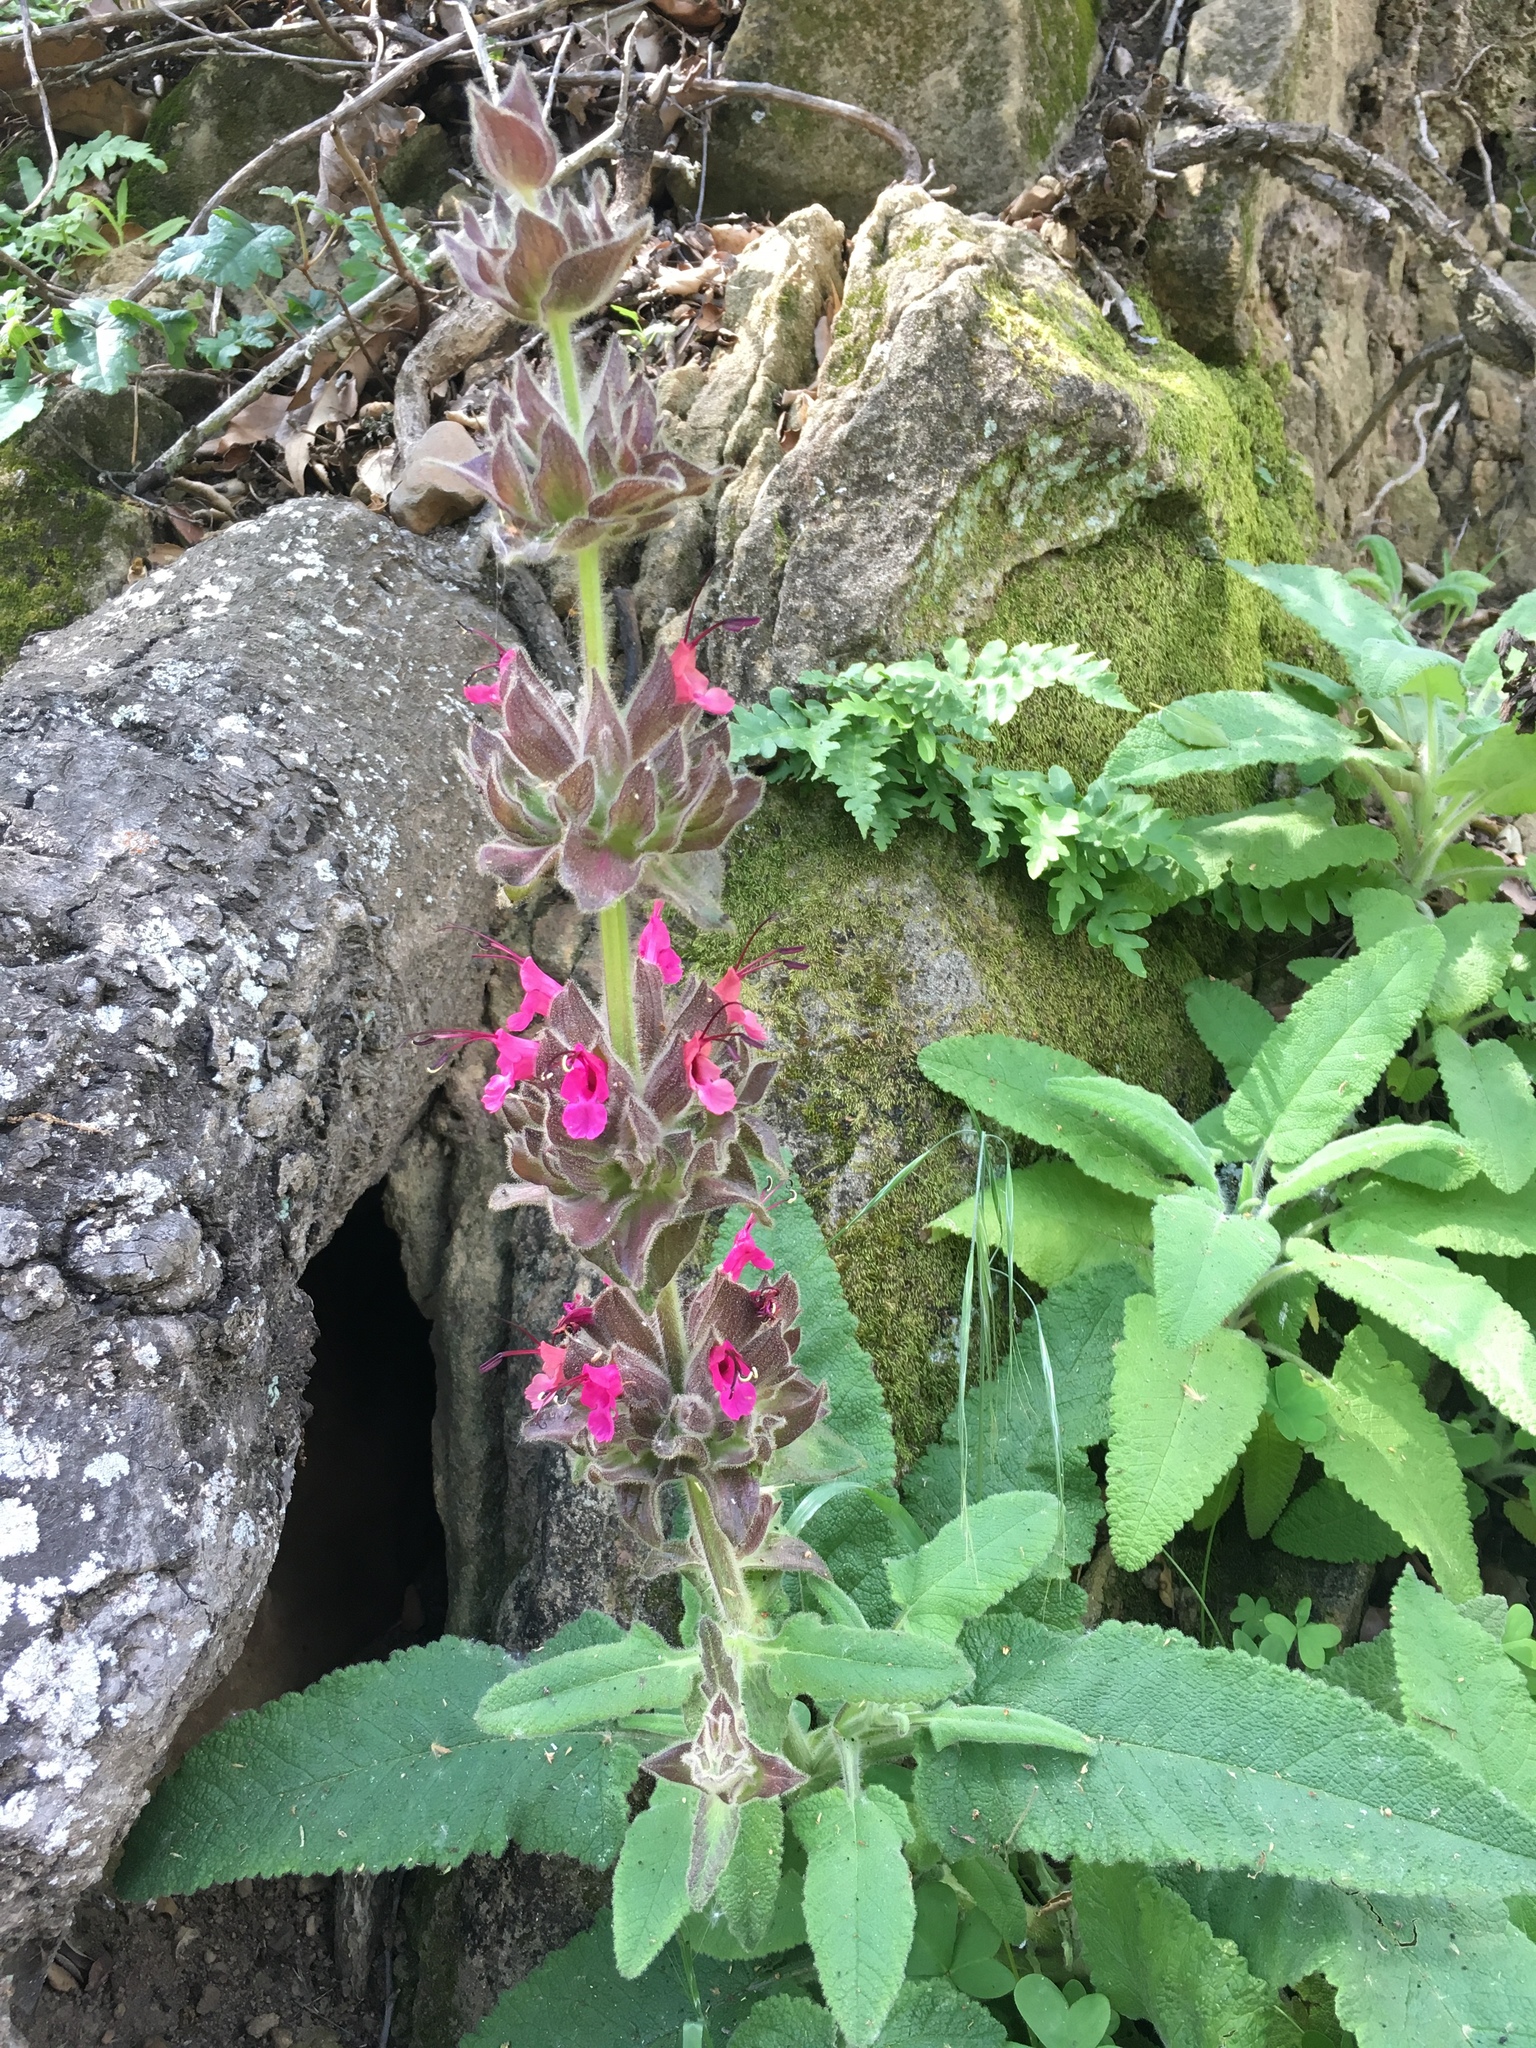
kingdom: Plantae
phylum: Tracheophyta
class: Magnoliopsida
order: Lamiales
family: Lamiaceae
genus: Salvia
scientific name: Salvia spathacea
